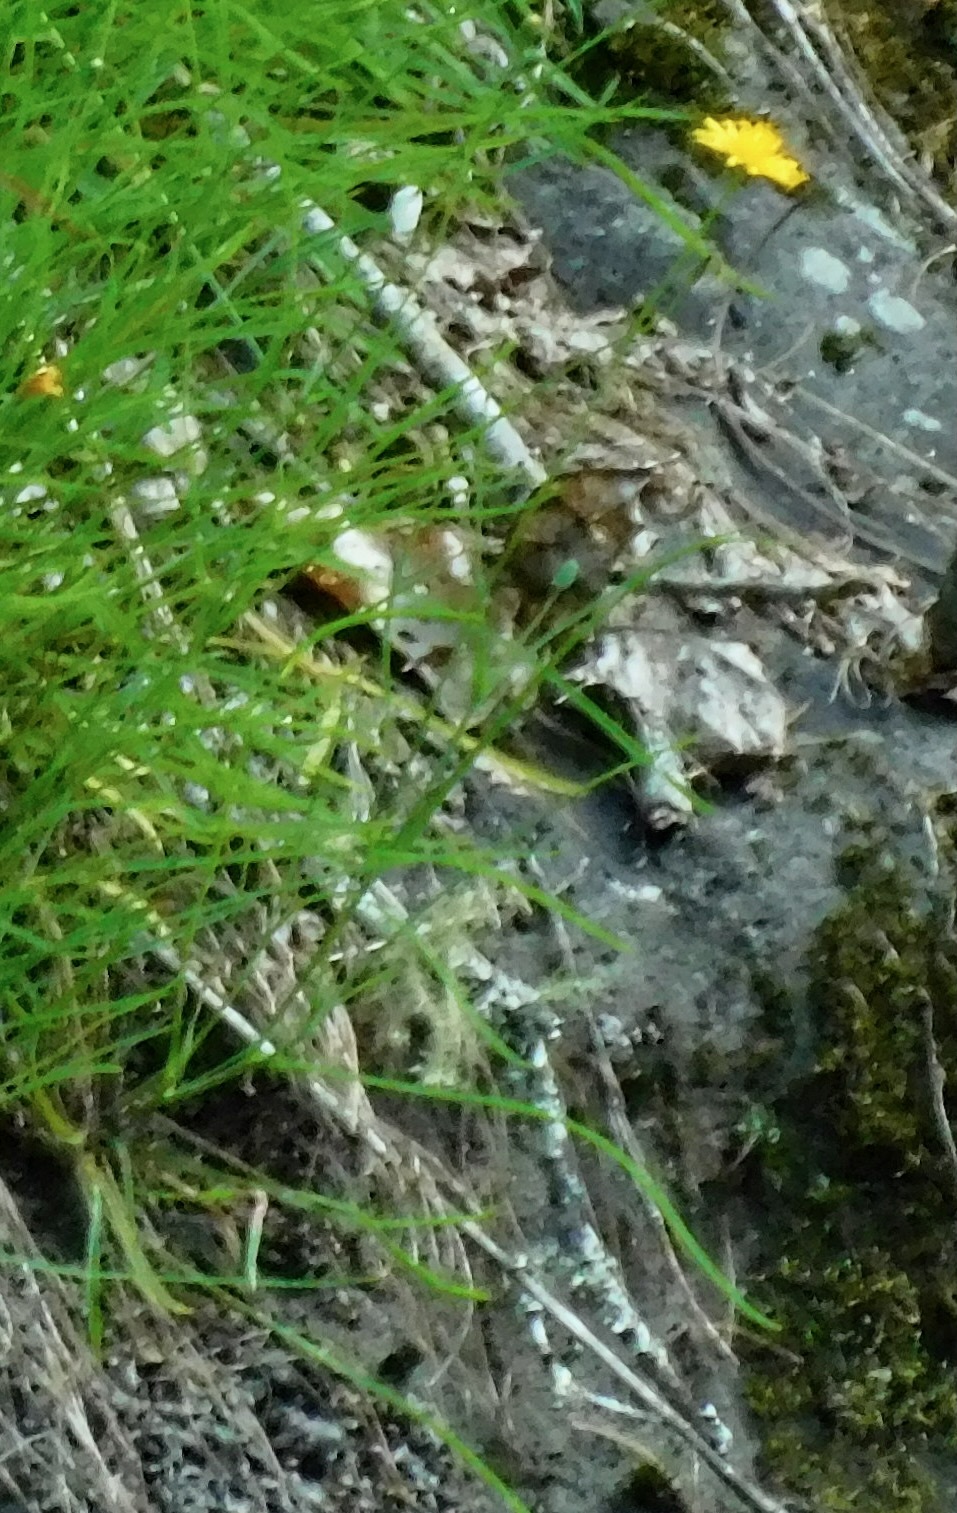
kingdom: Plantae
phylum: Tracheophyta
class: Magnoliopsida
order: Asterales
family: Asteraceae
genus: Krigia
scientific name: Krigia montana
